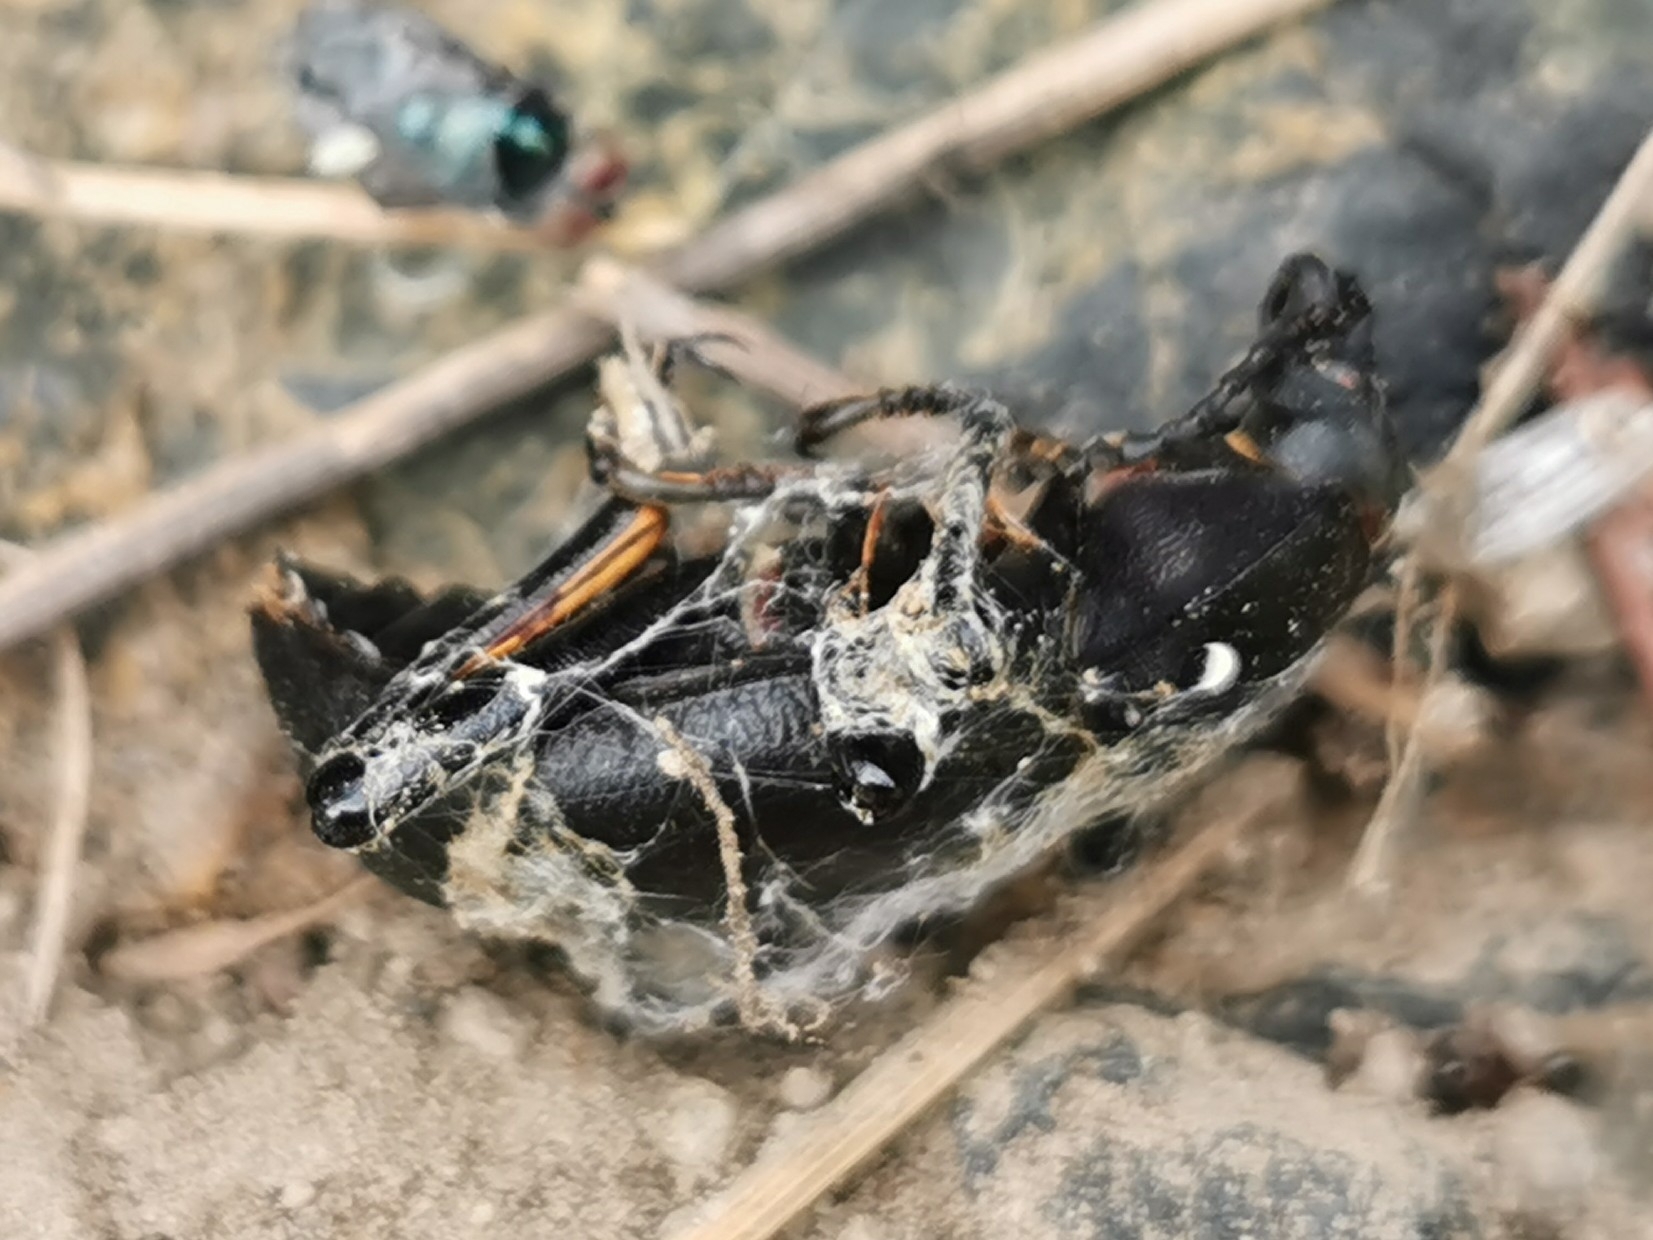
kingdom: Animalia
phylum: Arthropoda
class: Insecta
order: Coleoptera
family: Tenebrionidae
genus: Coelocnemis
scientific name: Coelocnemis dilaticollis
